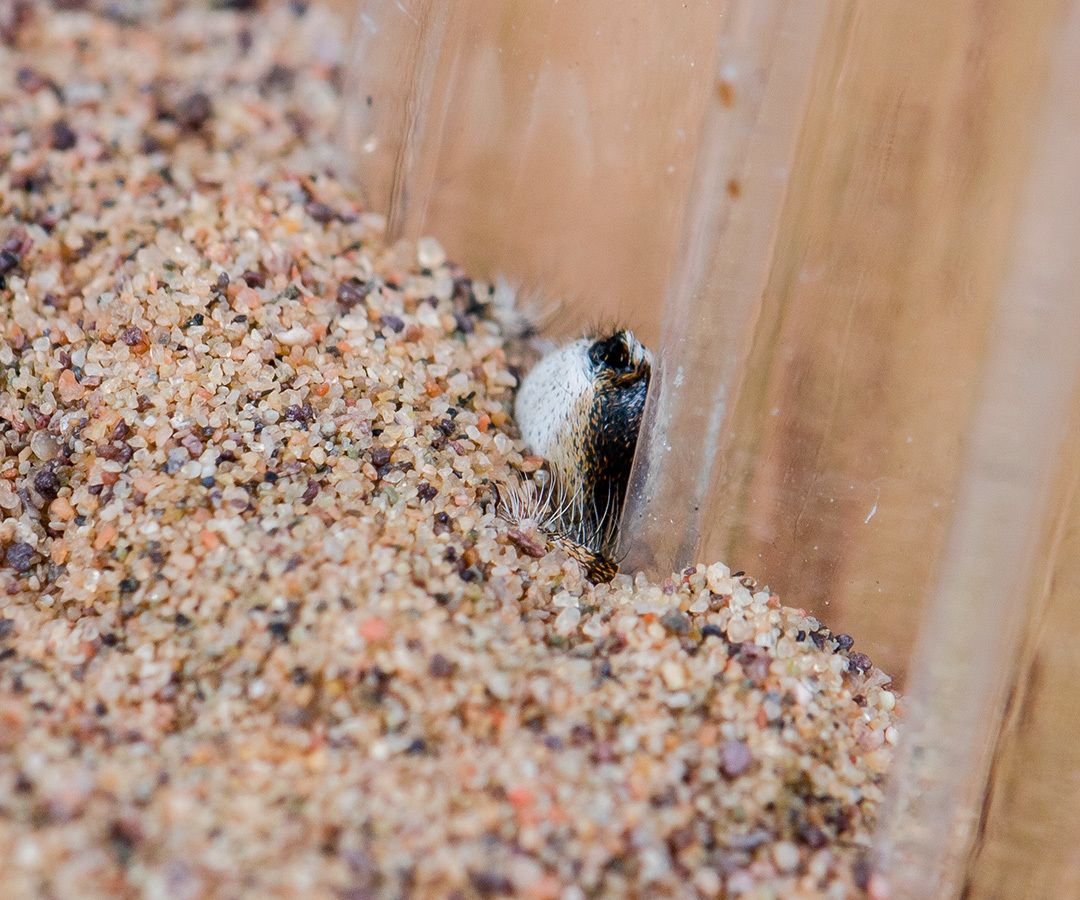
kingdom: Animalia
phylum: Arthropoda
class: Arachnida
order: Araneae
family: Salticidae
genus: Yllenus
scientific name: Yllenus uiguricus
